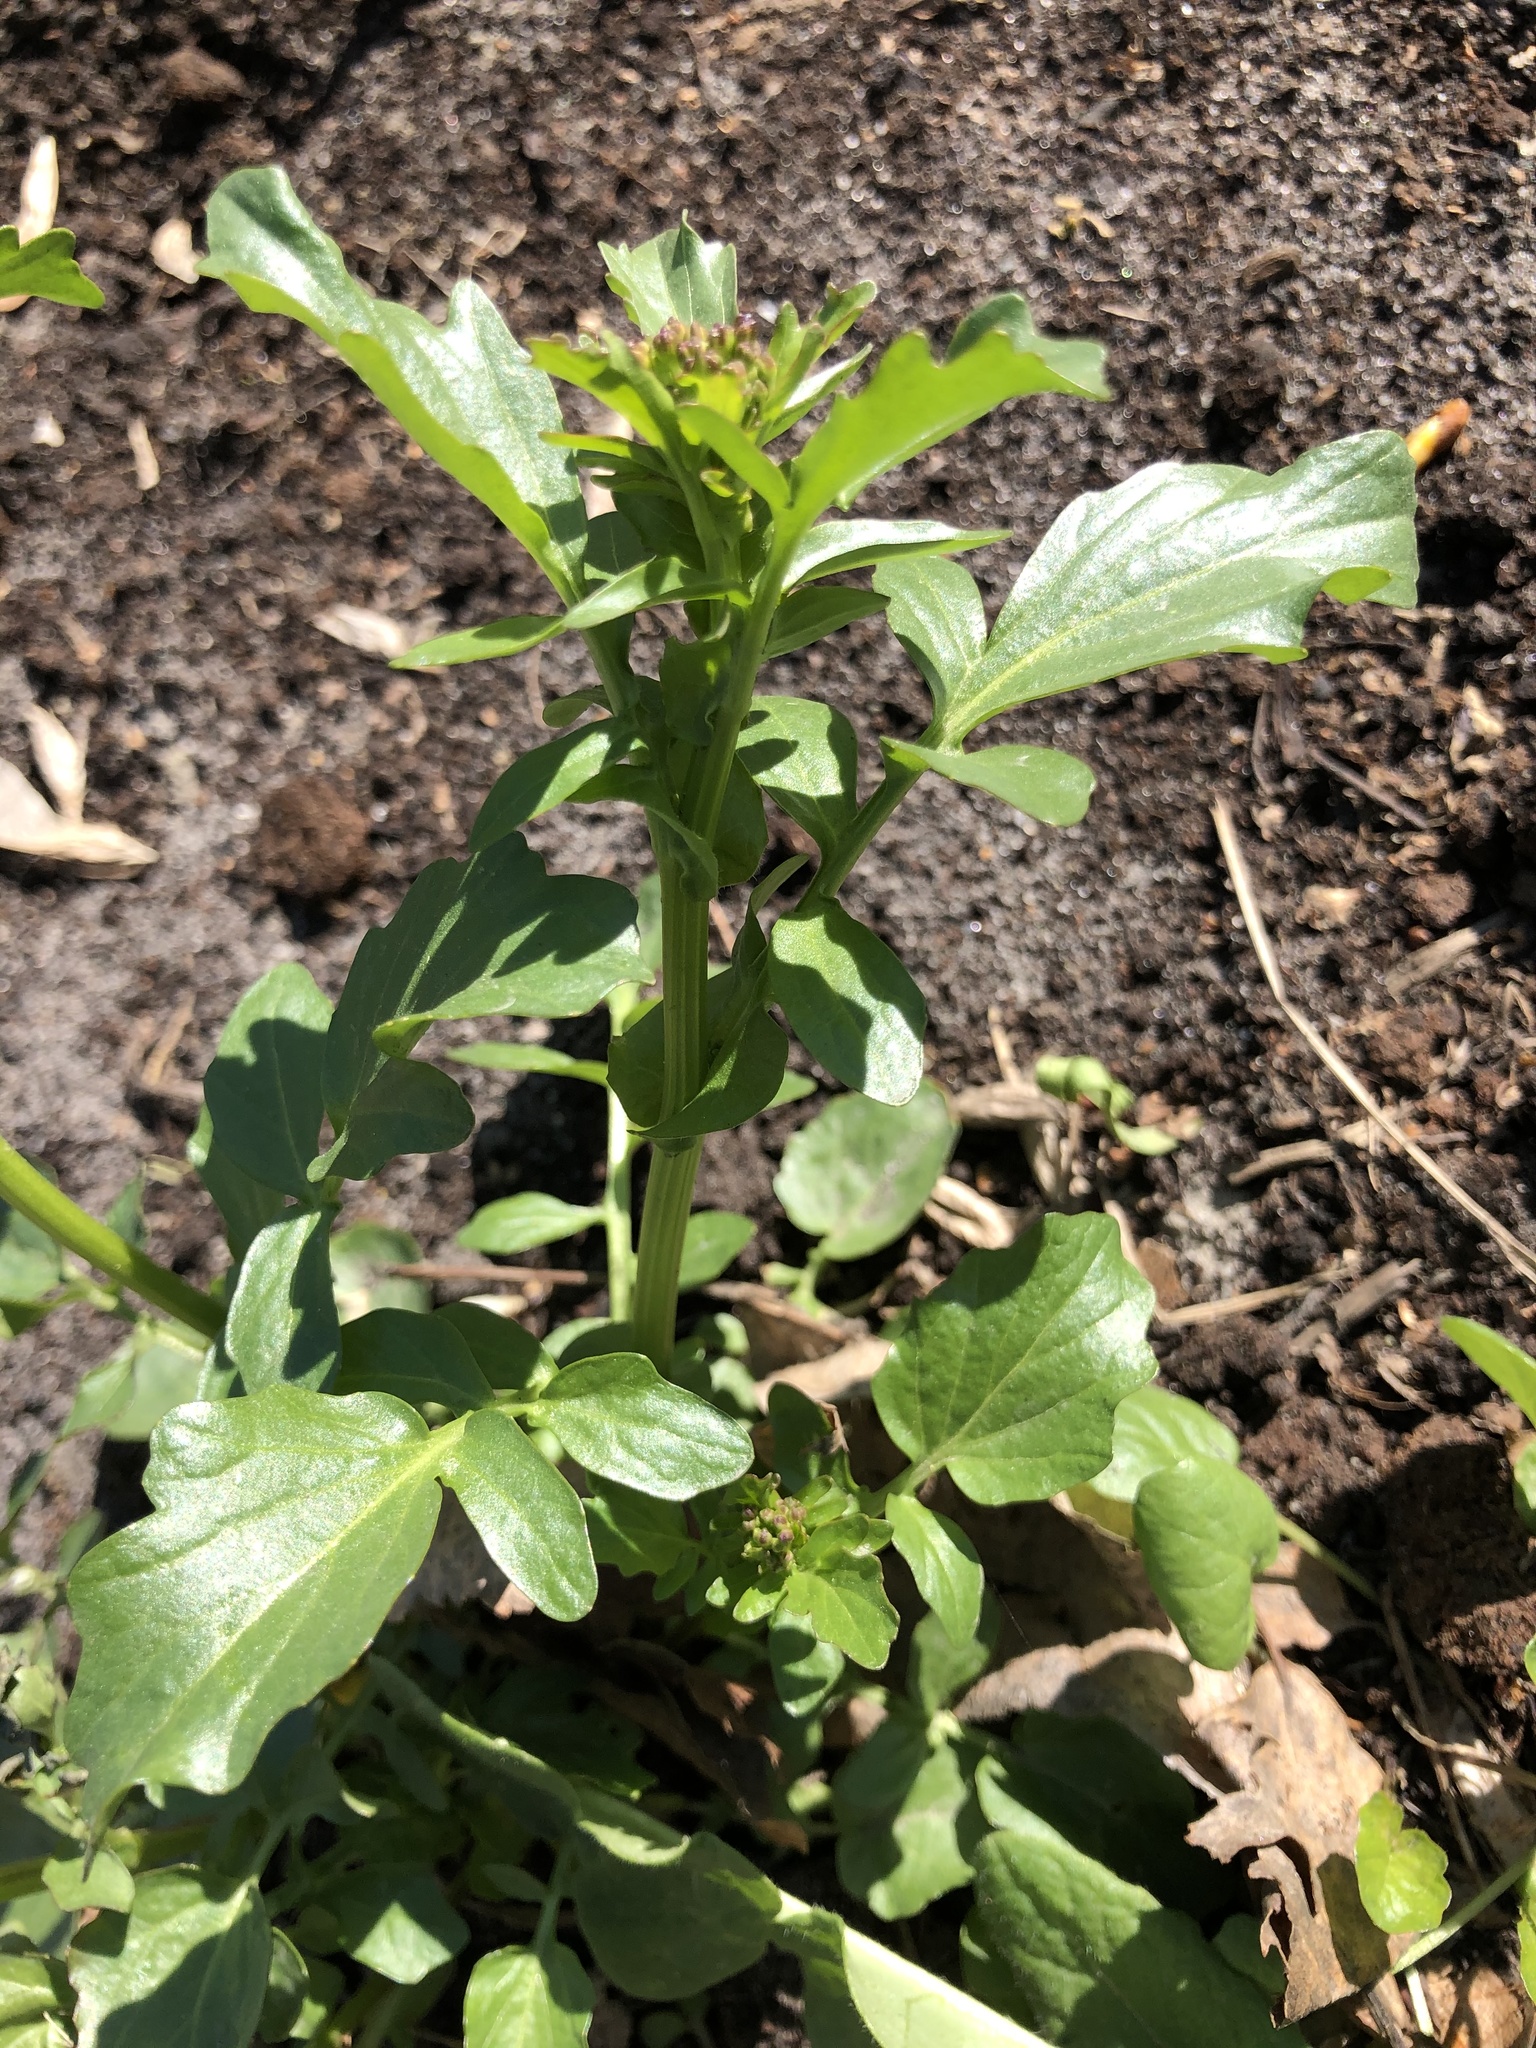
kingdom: Plantae
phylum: Tracheophyta
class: Magnoliopsida
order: Brassicales
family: Brassicaceae
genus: Barbarea
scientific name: Barbarea vulgaris
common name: Cressy-greens
